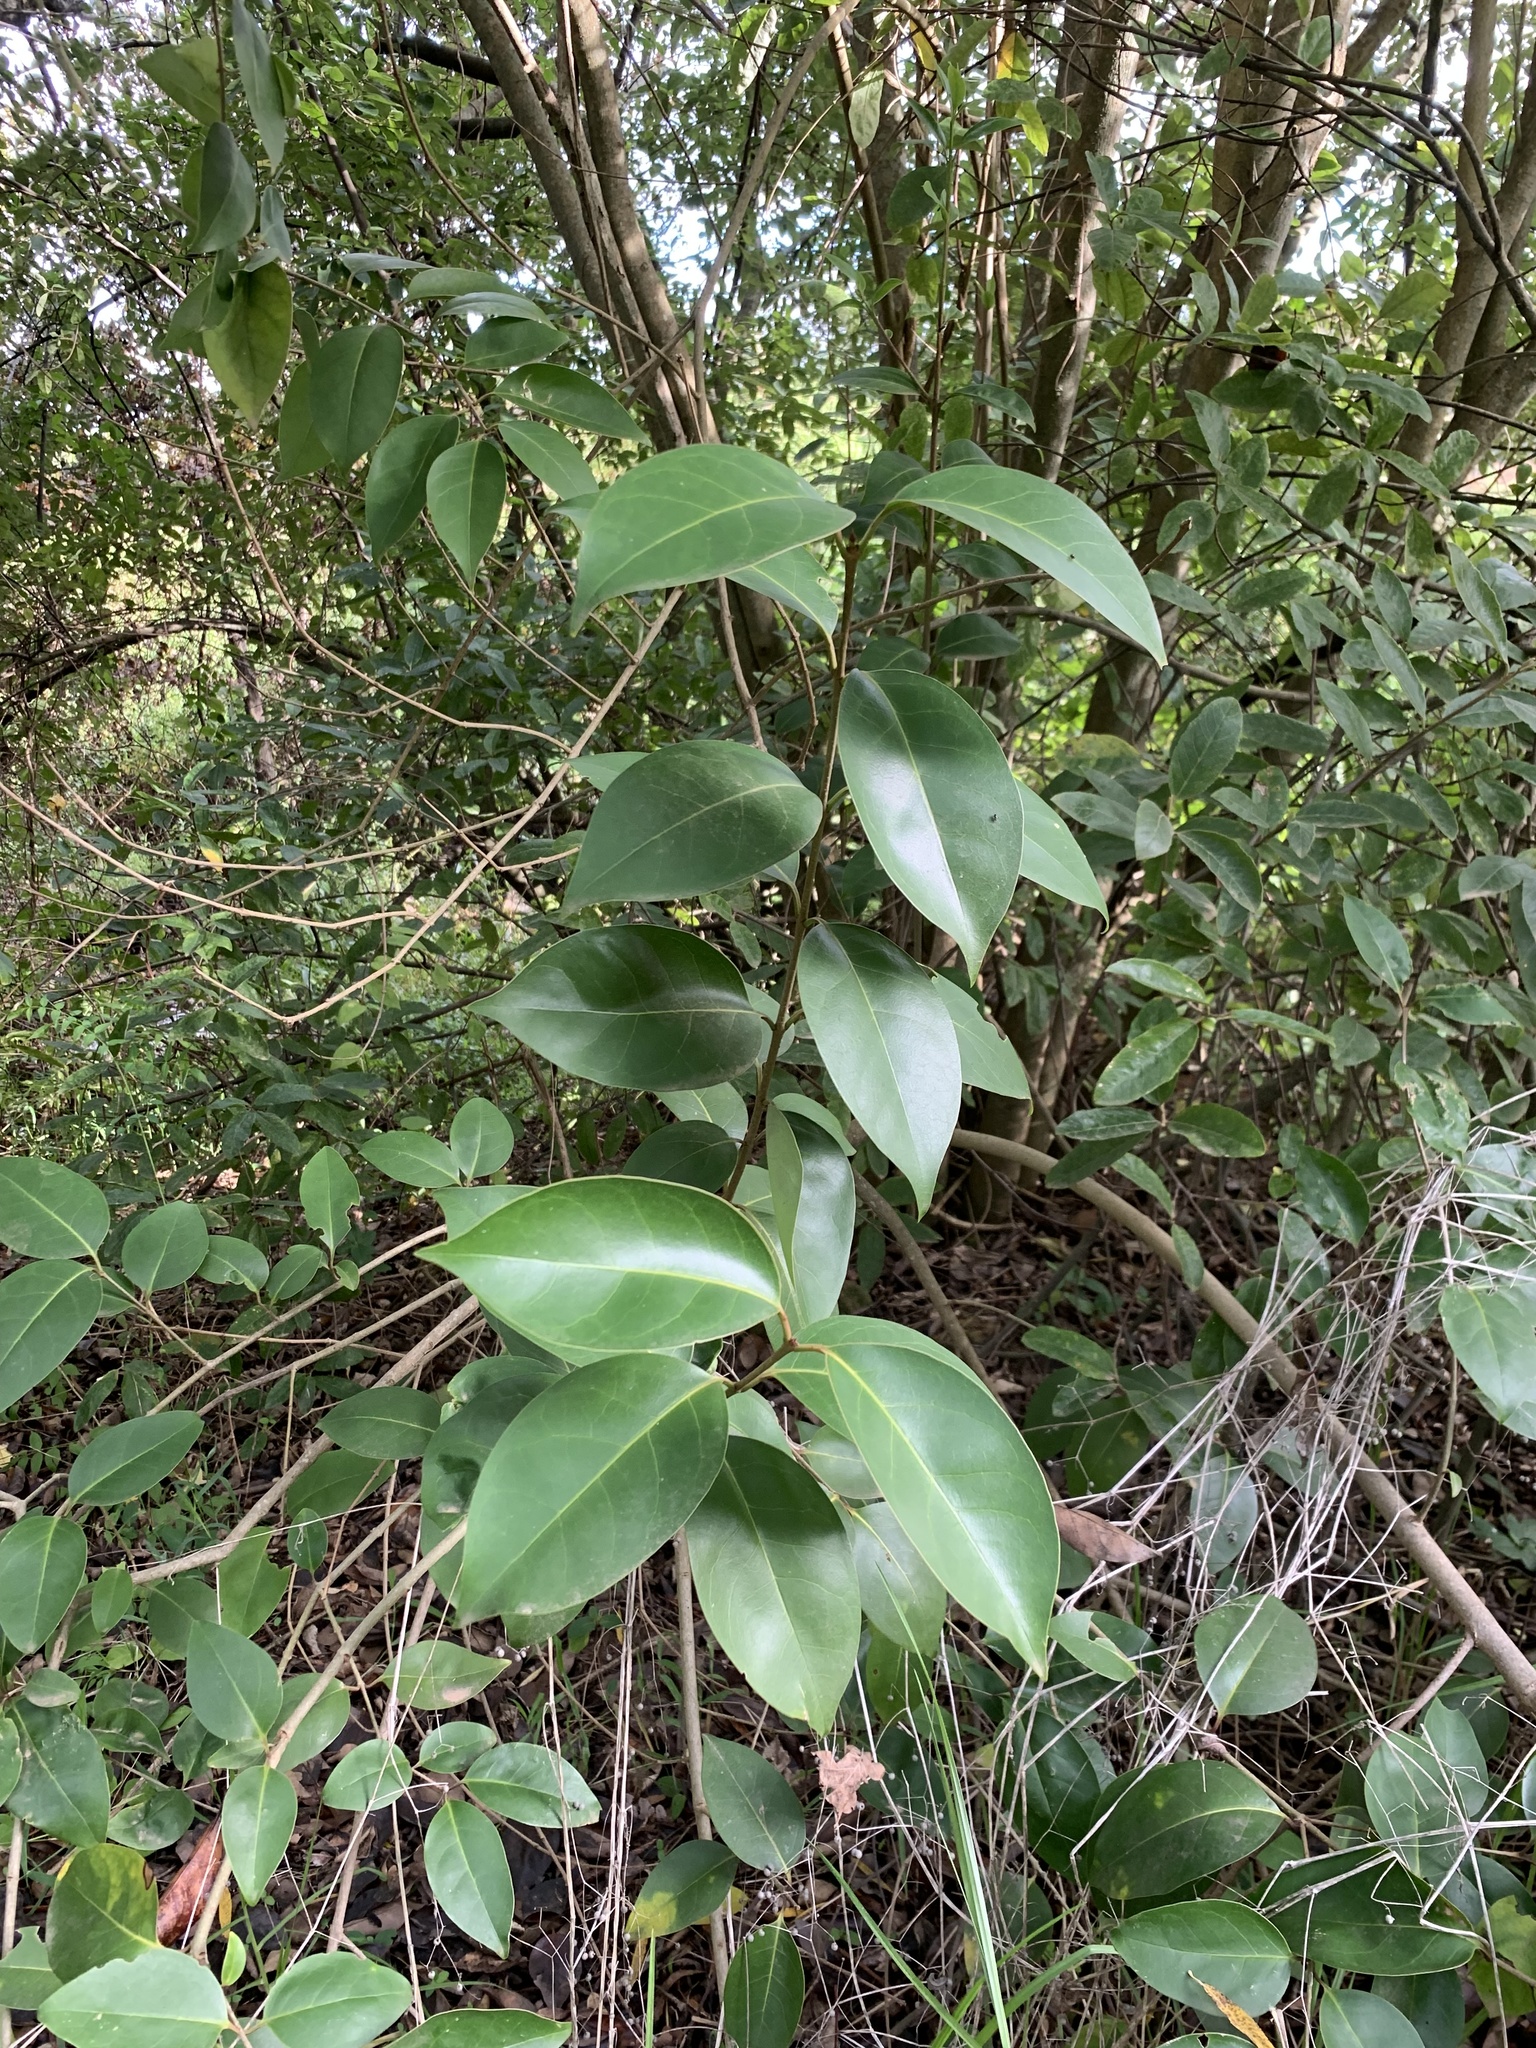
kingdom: Plantae
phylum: Tracheophyta
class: Magnoliopsida
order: Lamiales
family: Oleaceae
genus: Ligustrum
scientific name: Ligustrum lucidum
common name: Glossy privet
